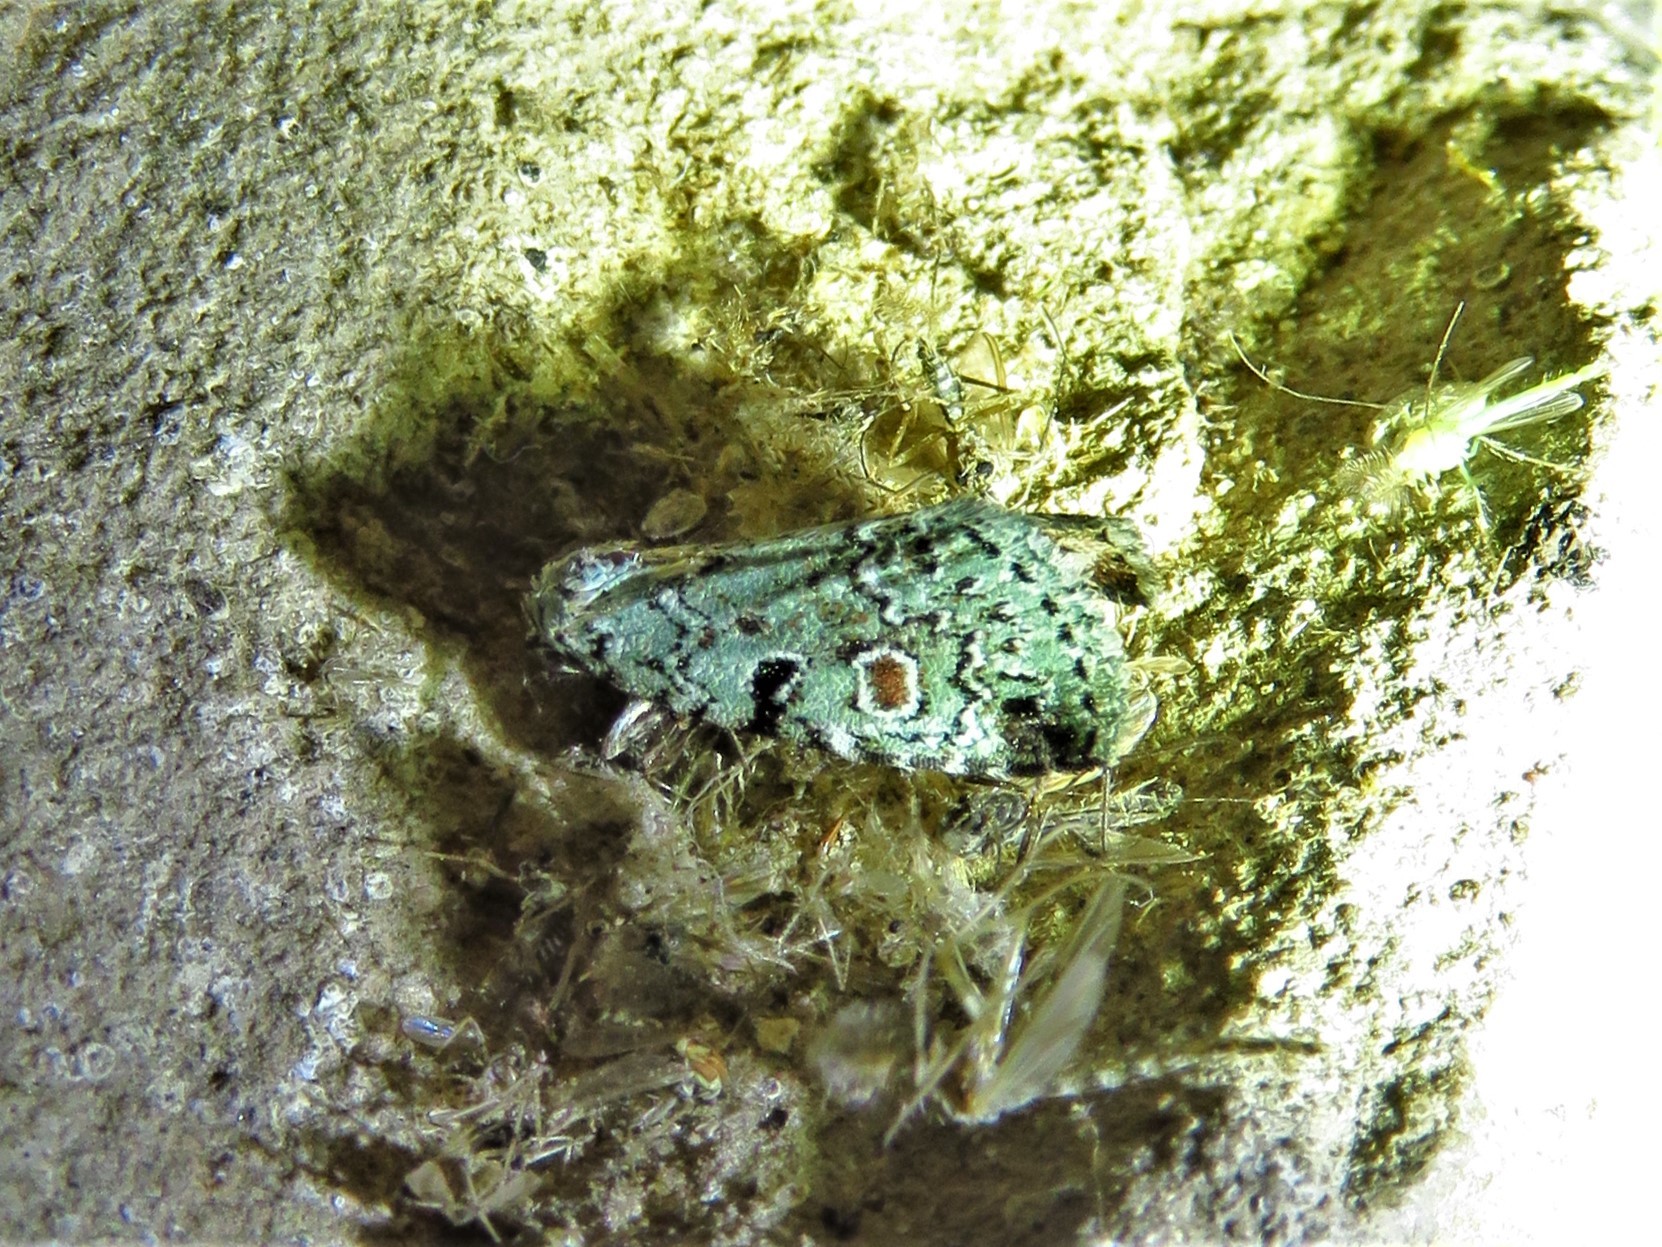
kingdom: Animalia
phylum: Arthropoda
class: Insecta
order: Lepidoptera
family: Noctuidae
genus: Maliattha
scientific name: Maliattha concinnimacula
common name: Red-spotted glyph
